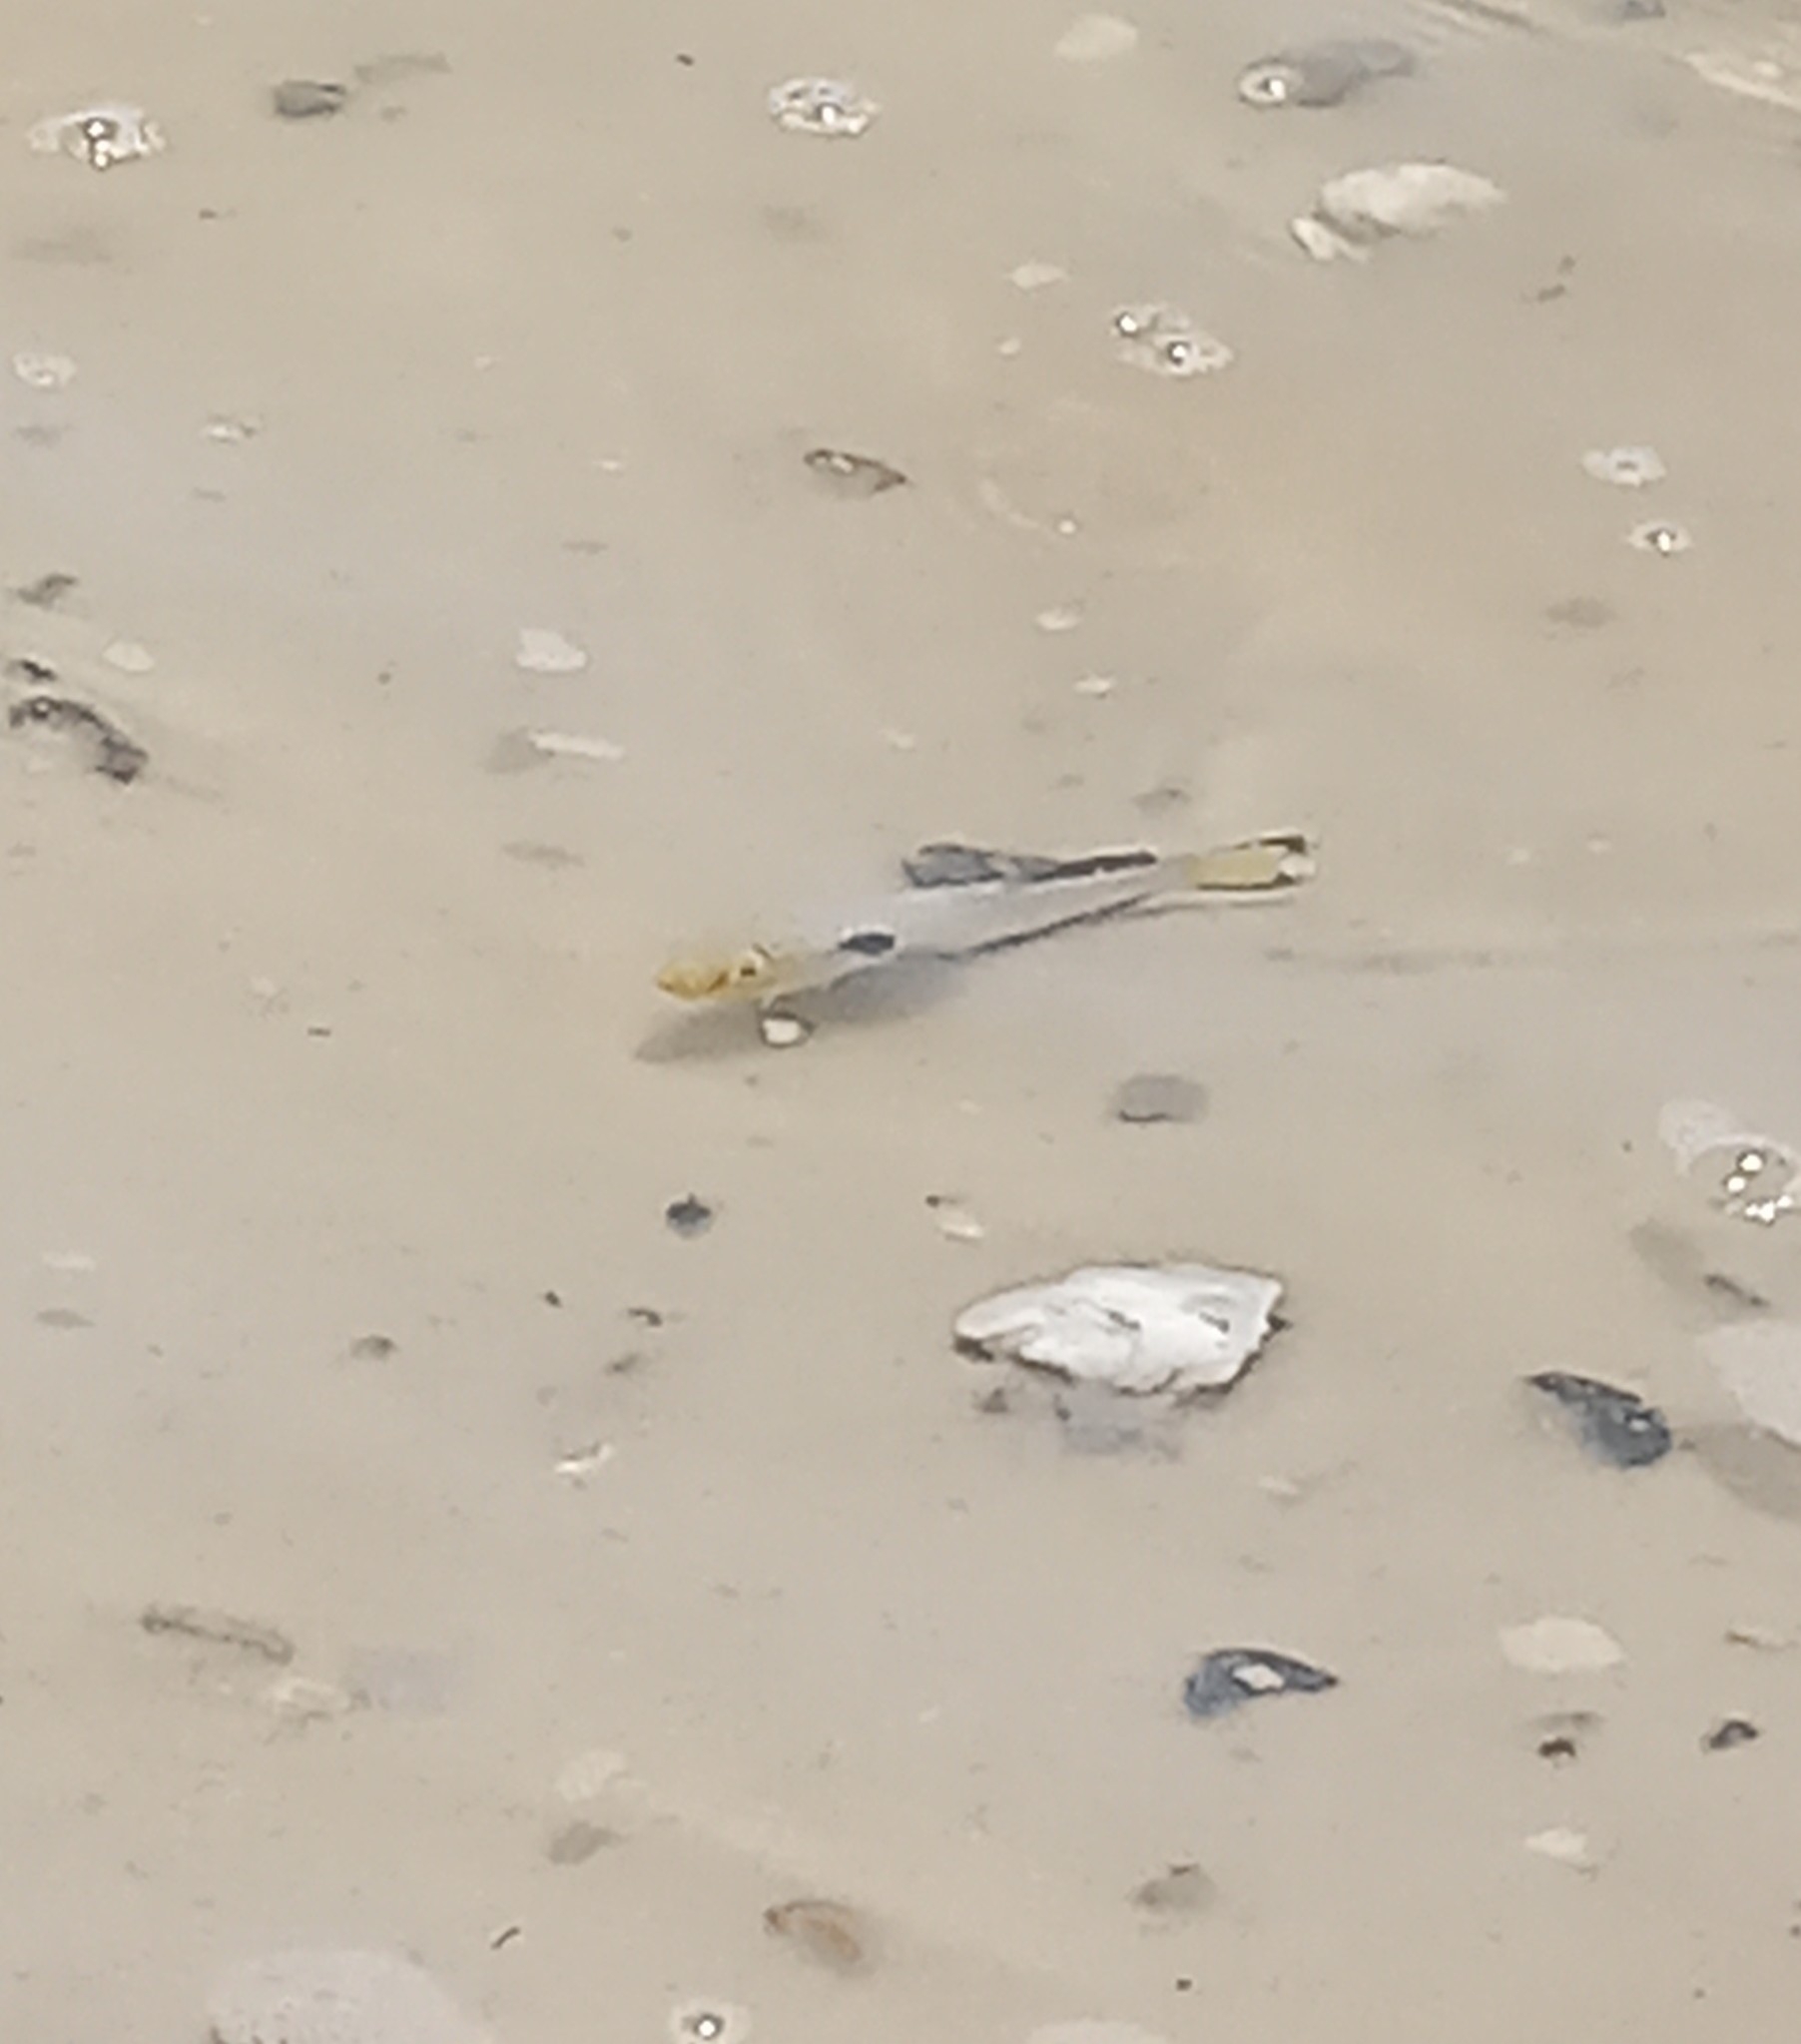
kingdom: Animalia
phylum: Chordata
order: Cyprinodontiformes
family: Fundulidae
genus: Fundulus
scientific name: Fundulus similis
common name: Longnose killifish
